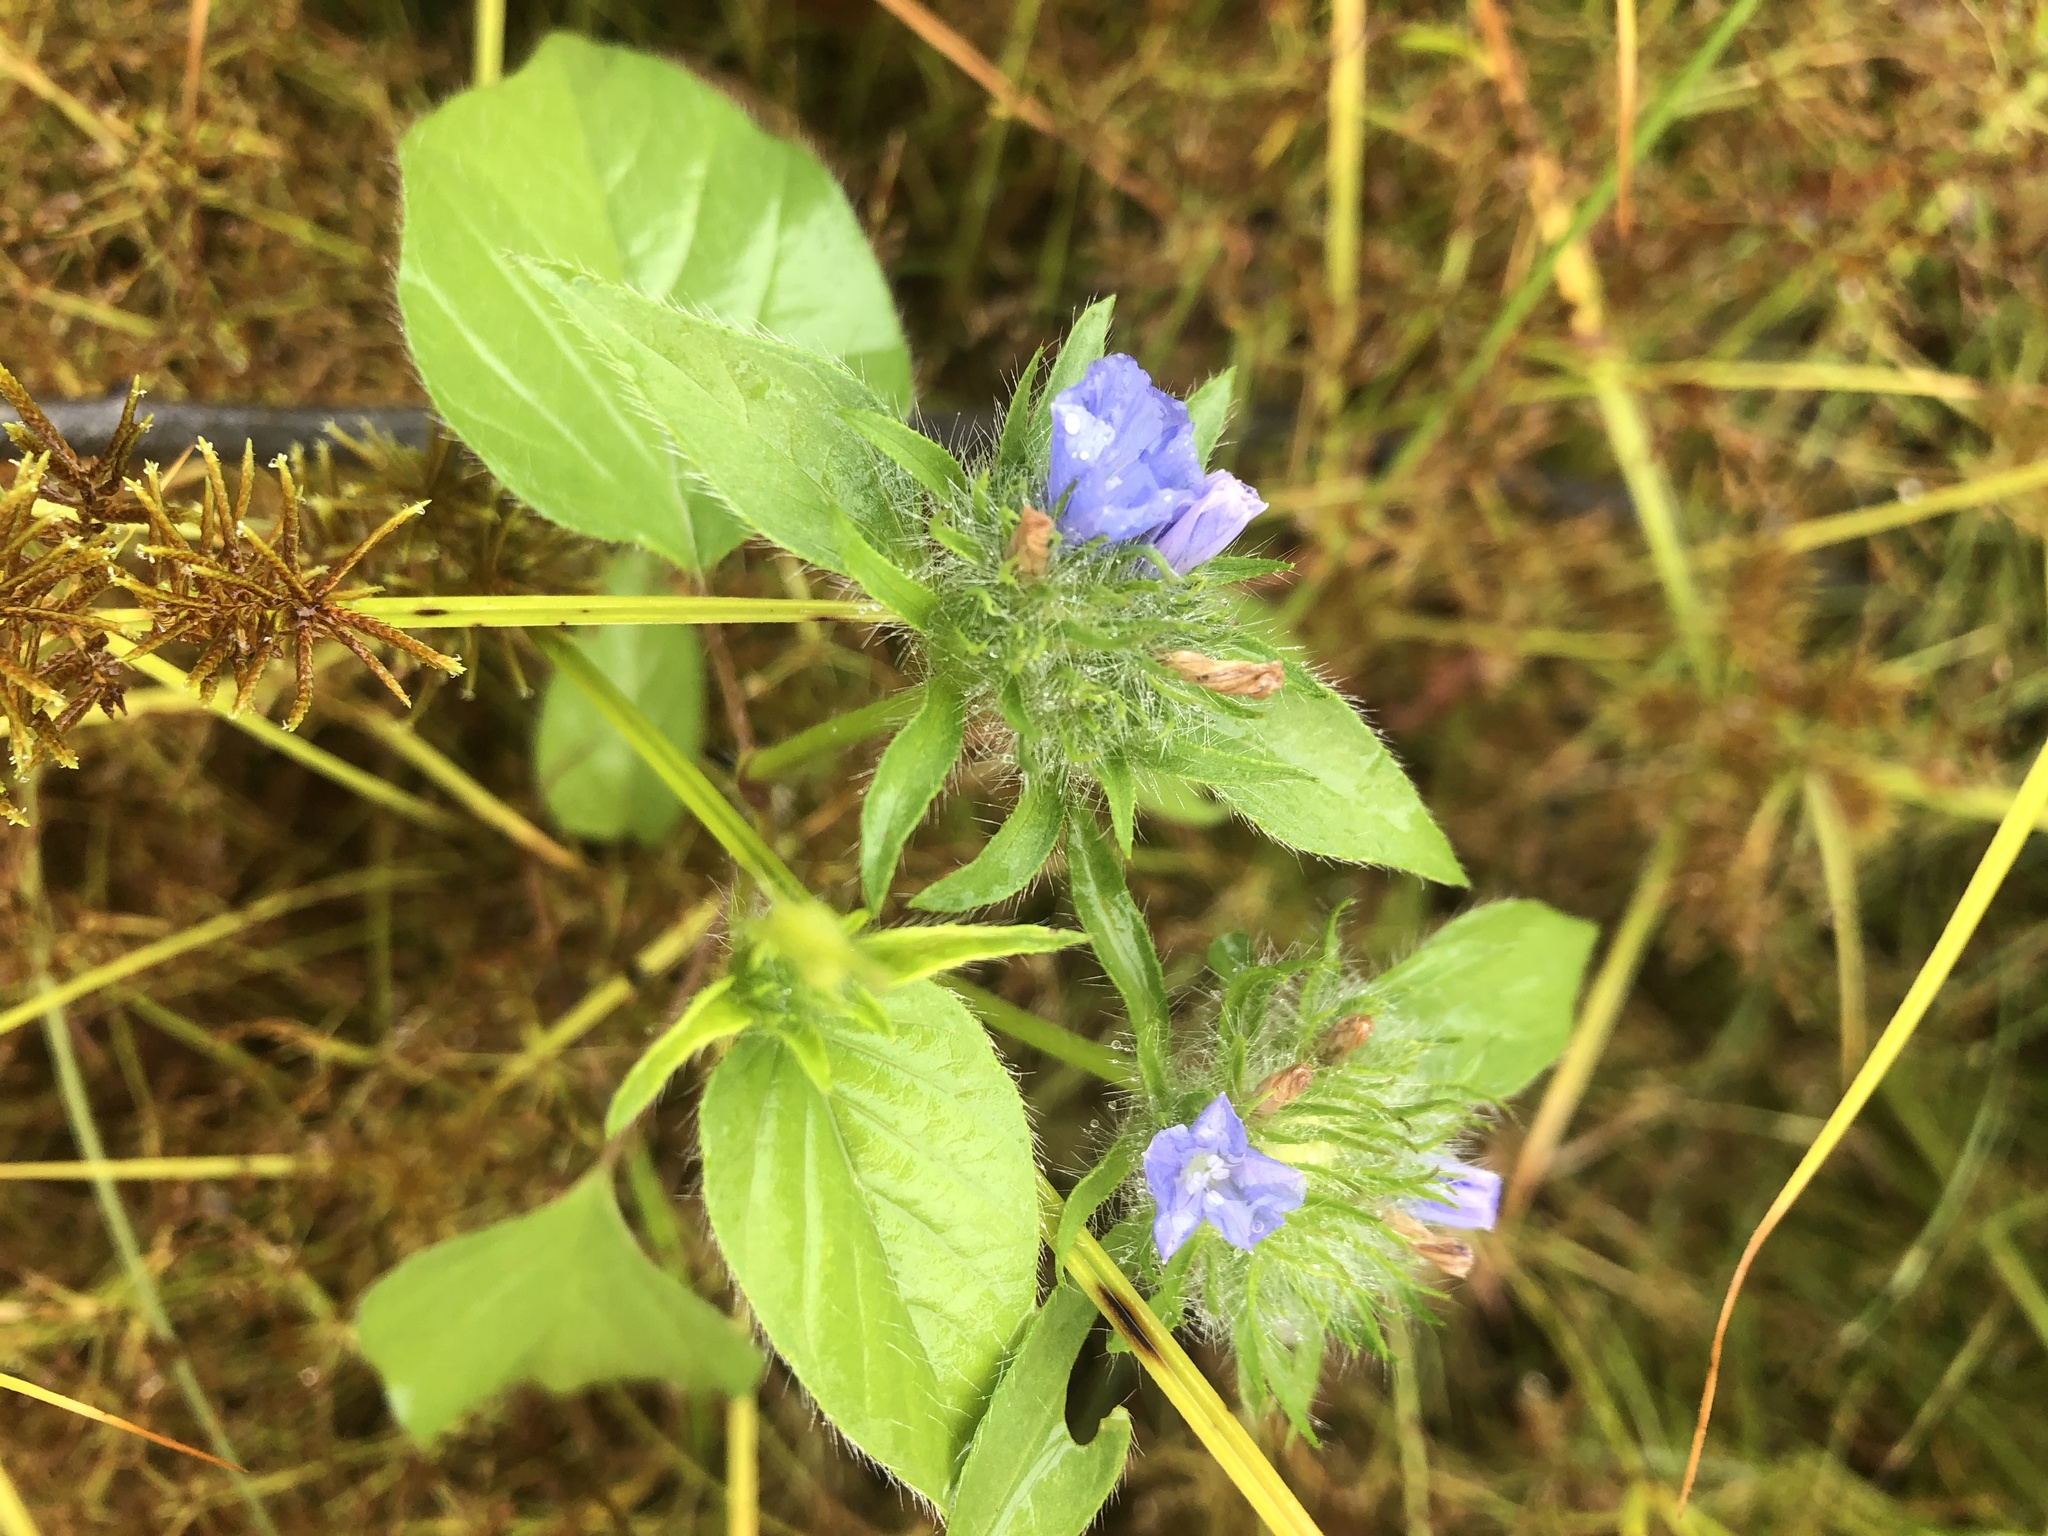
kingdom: Plantae
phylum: Tracheophyta
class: Magnoliopsida
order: Solanales
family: Convolvulaceae
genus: Jacquemontia
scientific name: Jacquemontia tamnifolia
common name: Hairy clustervine
